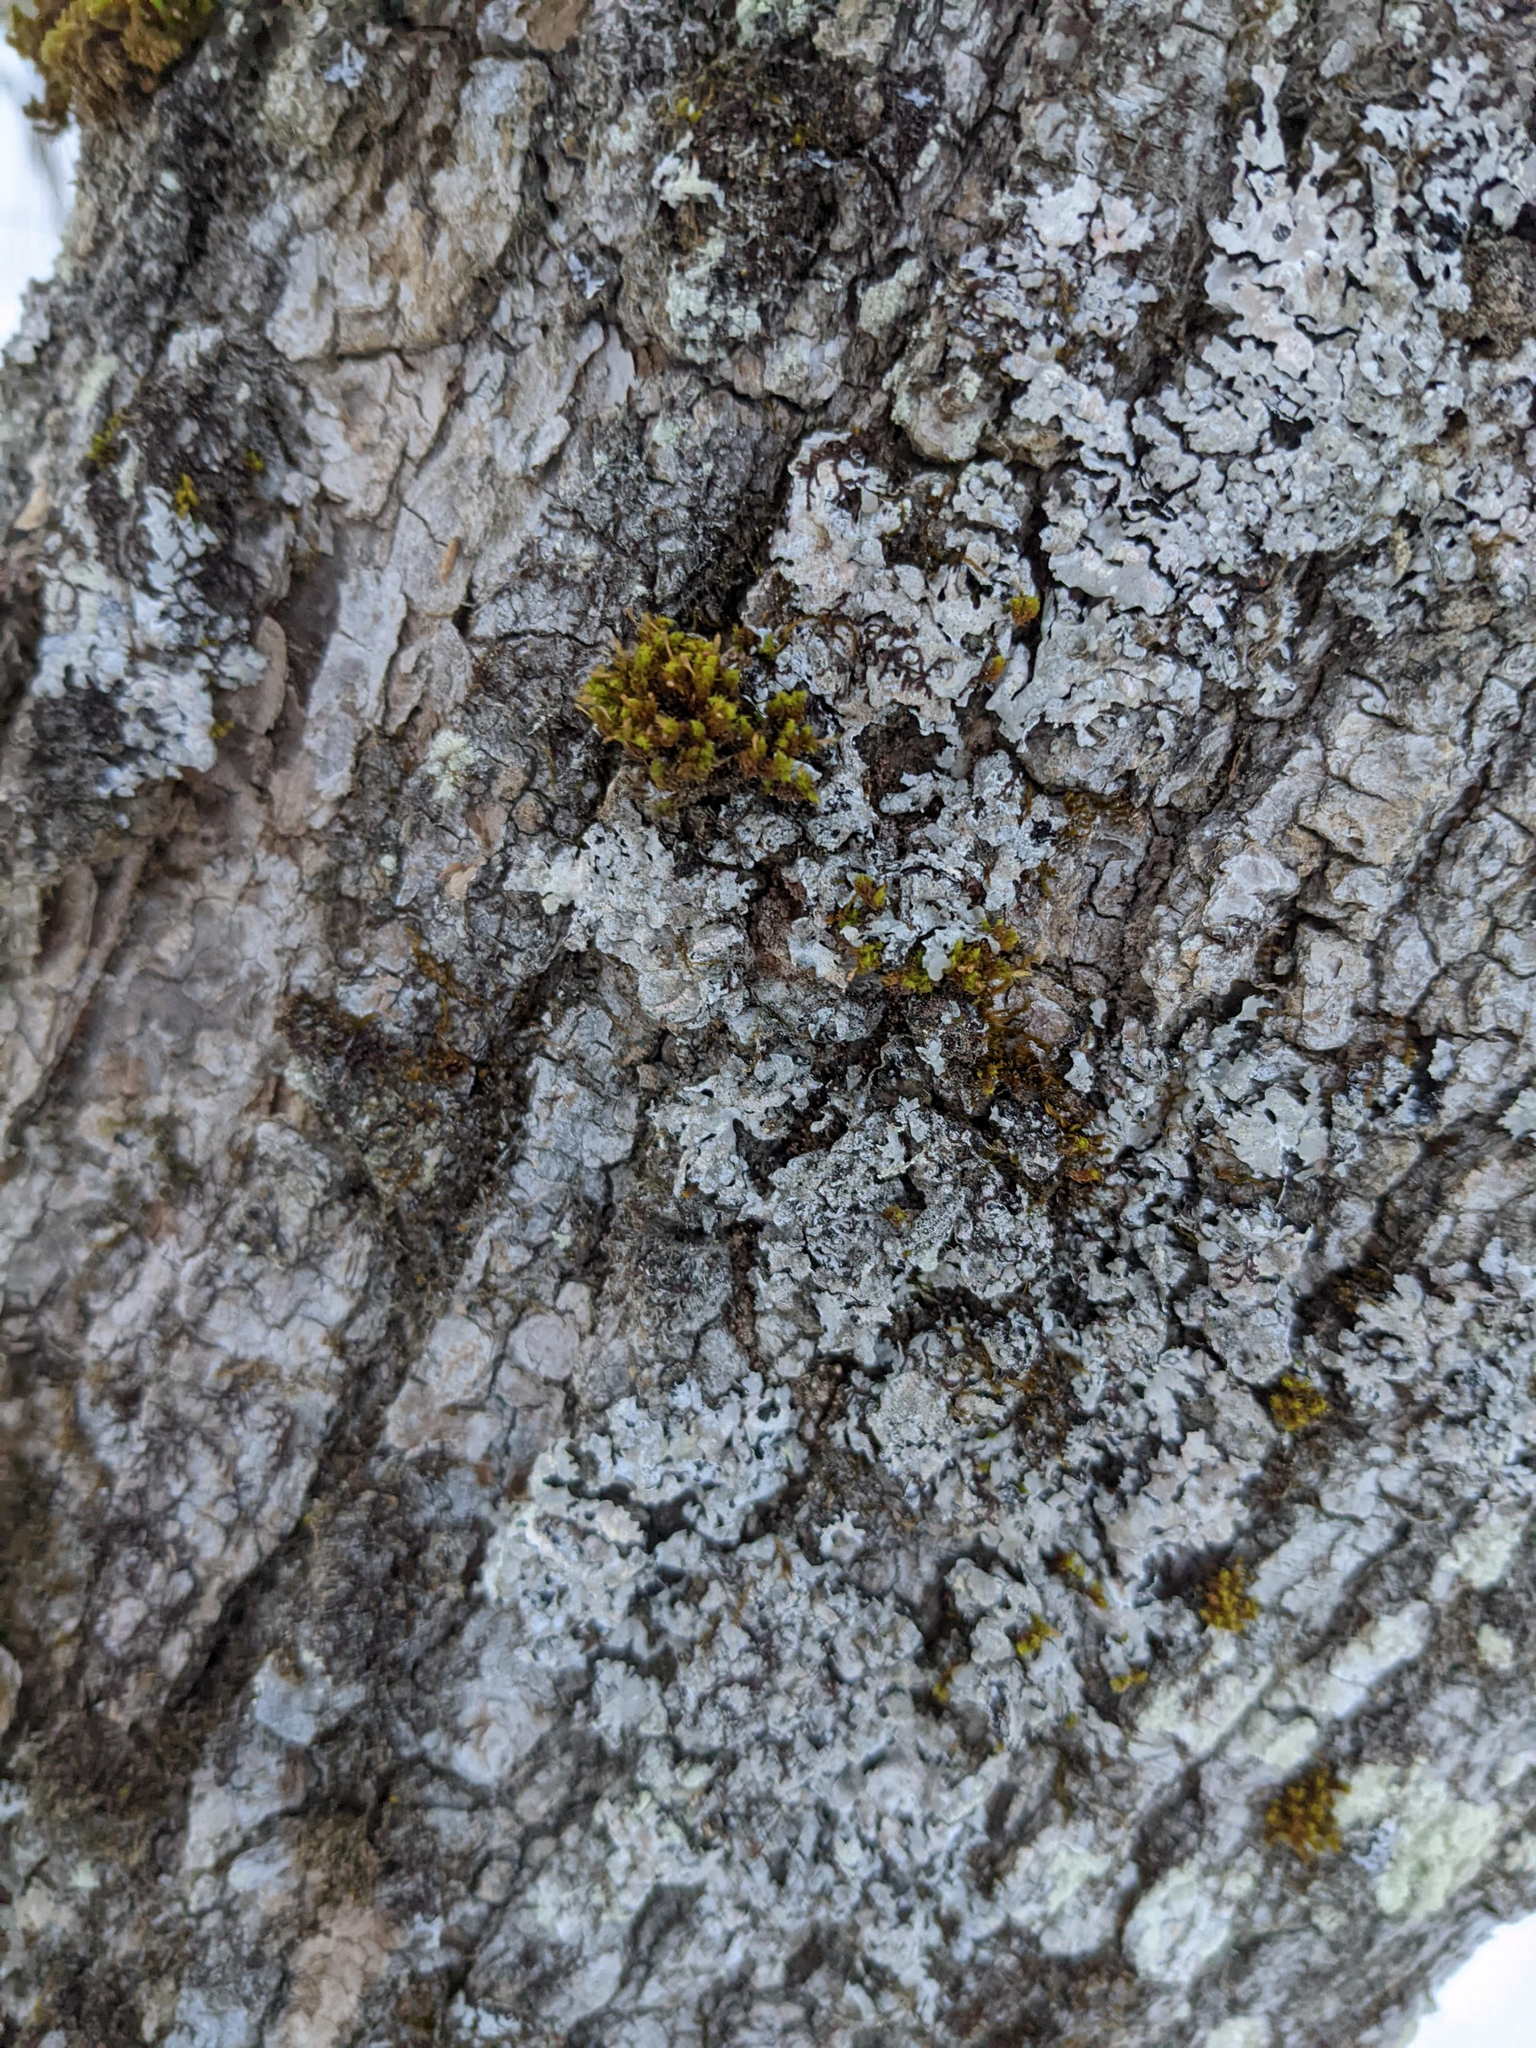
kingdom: Plantae
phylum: Bryophyta
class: Bryopsida
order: Orthotrichales
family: Orthotrichaceae
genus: Ulota
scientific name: Ulota crispa
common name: Crisped pincushion moss
